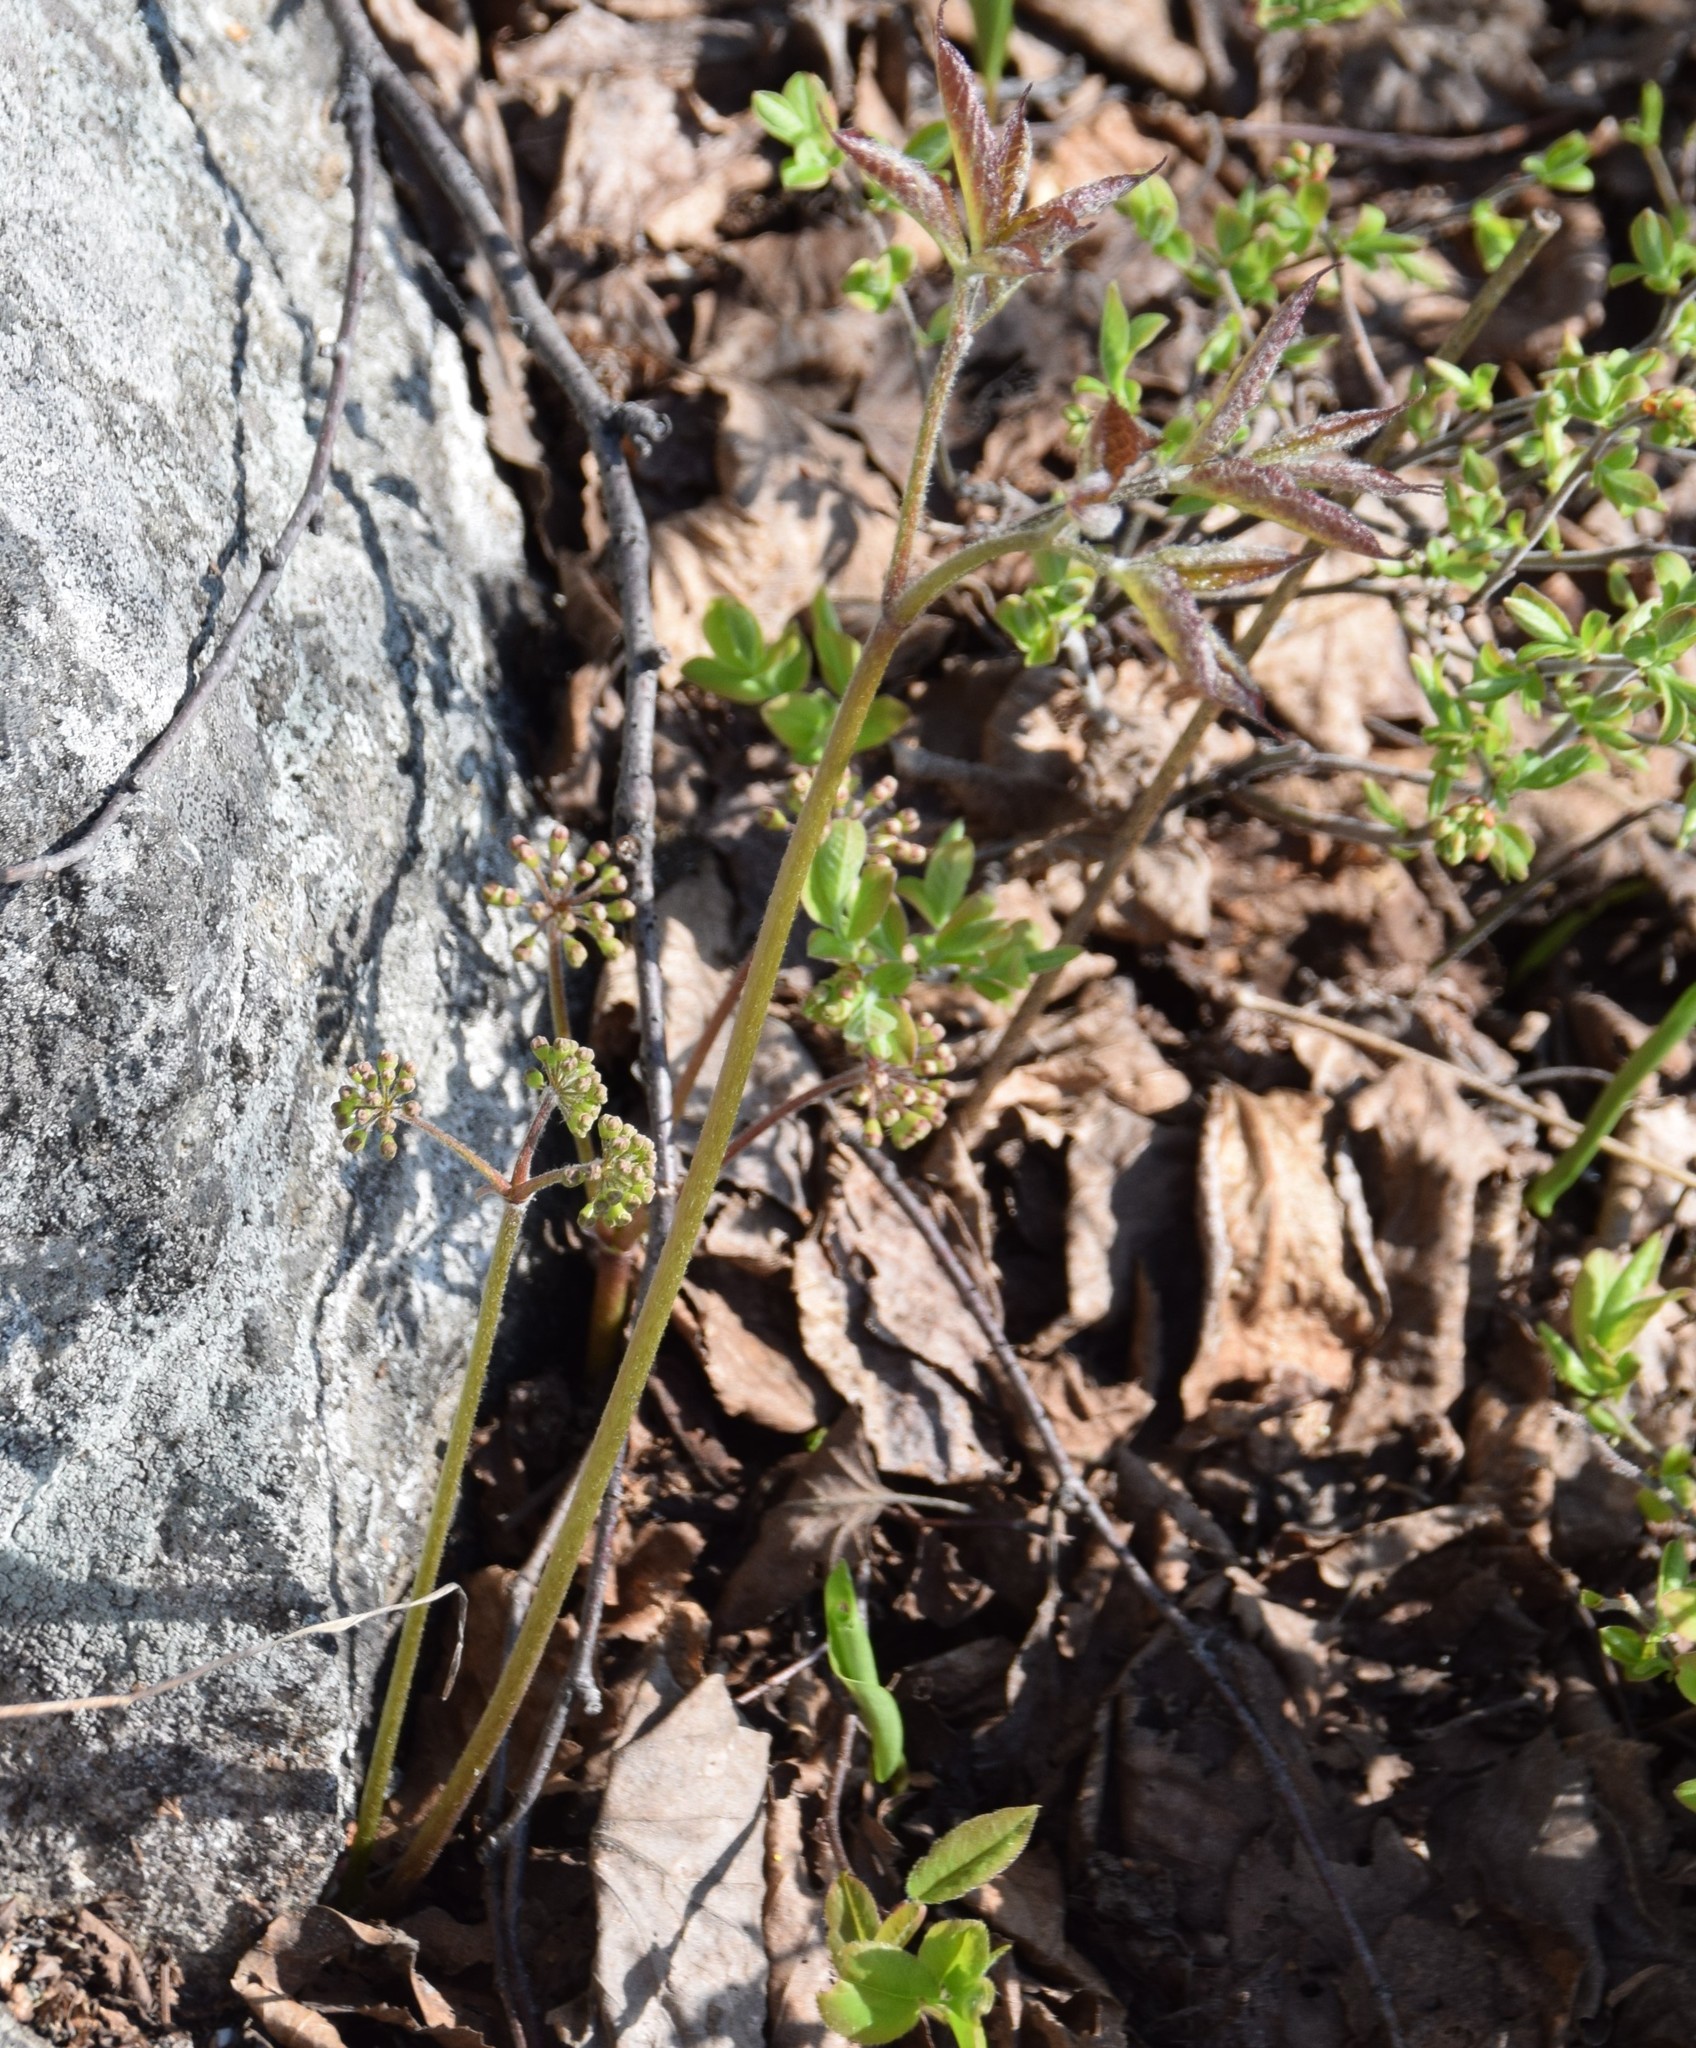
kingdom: Plantae
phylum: Tracheophyta
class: Magnoliopsida
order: Apiales
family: Araliaceae
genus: Aralia
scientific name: Aralia nudicaulis
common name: Wild sarsaparilla
